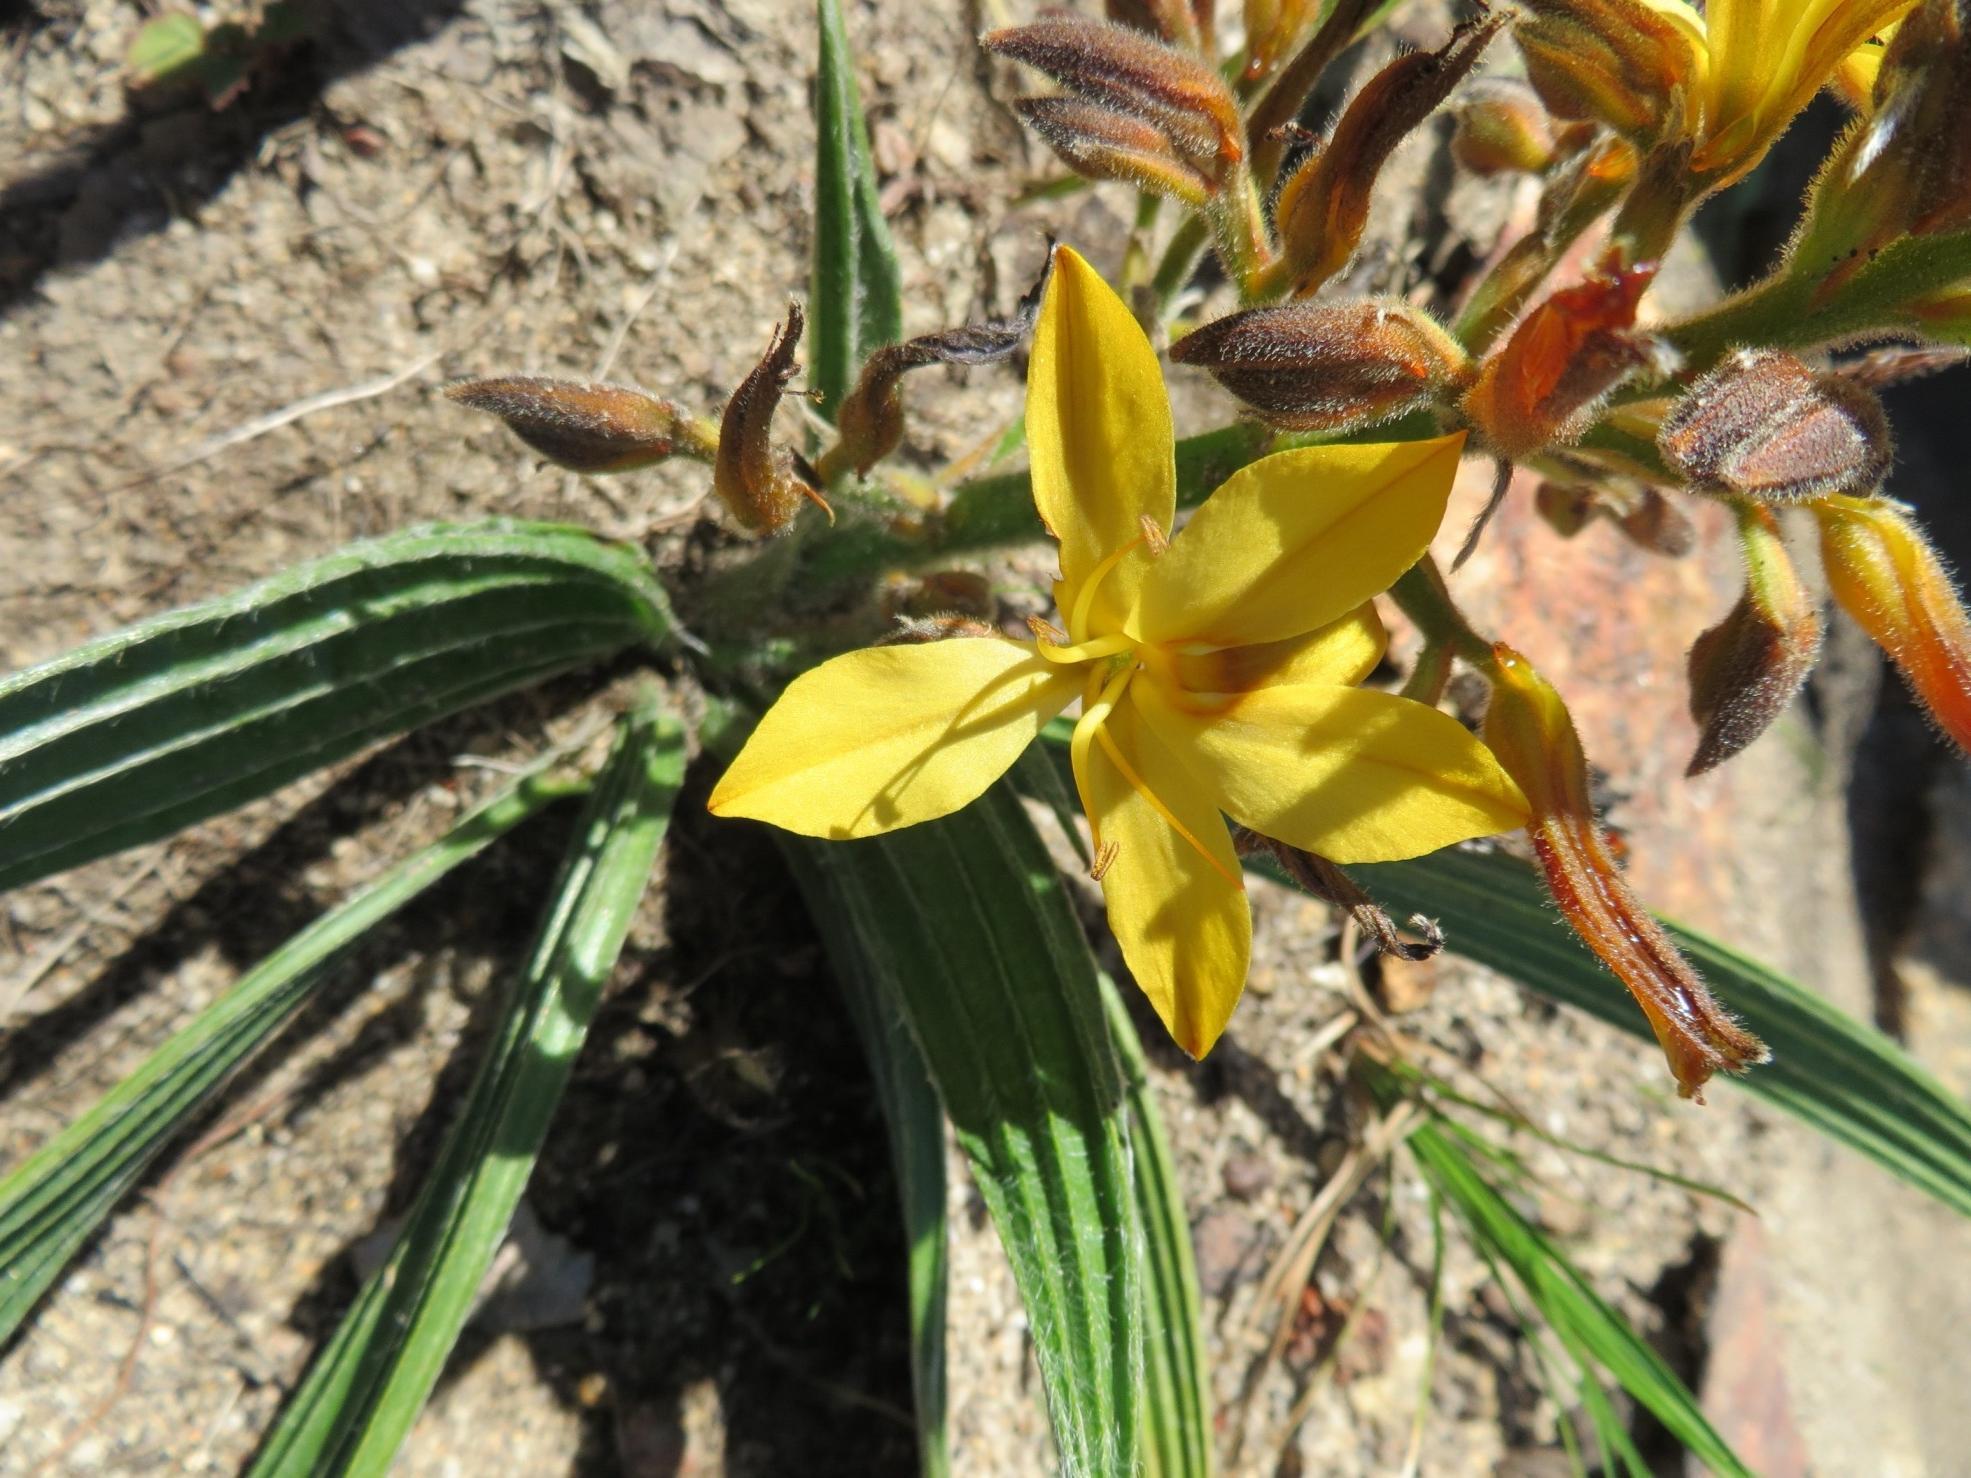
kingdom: Plantae
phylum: Tracheophyta
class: Liliopsida
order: Commelinales
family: Haemodoraceae
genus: Wachendorfia
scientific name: Wachendorfia multiflora
